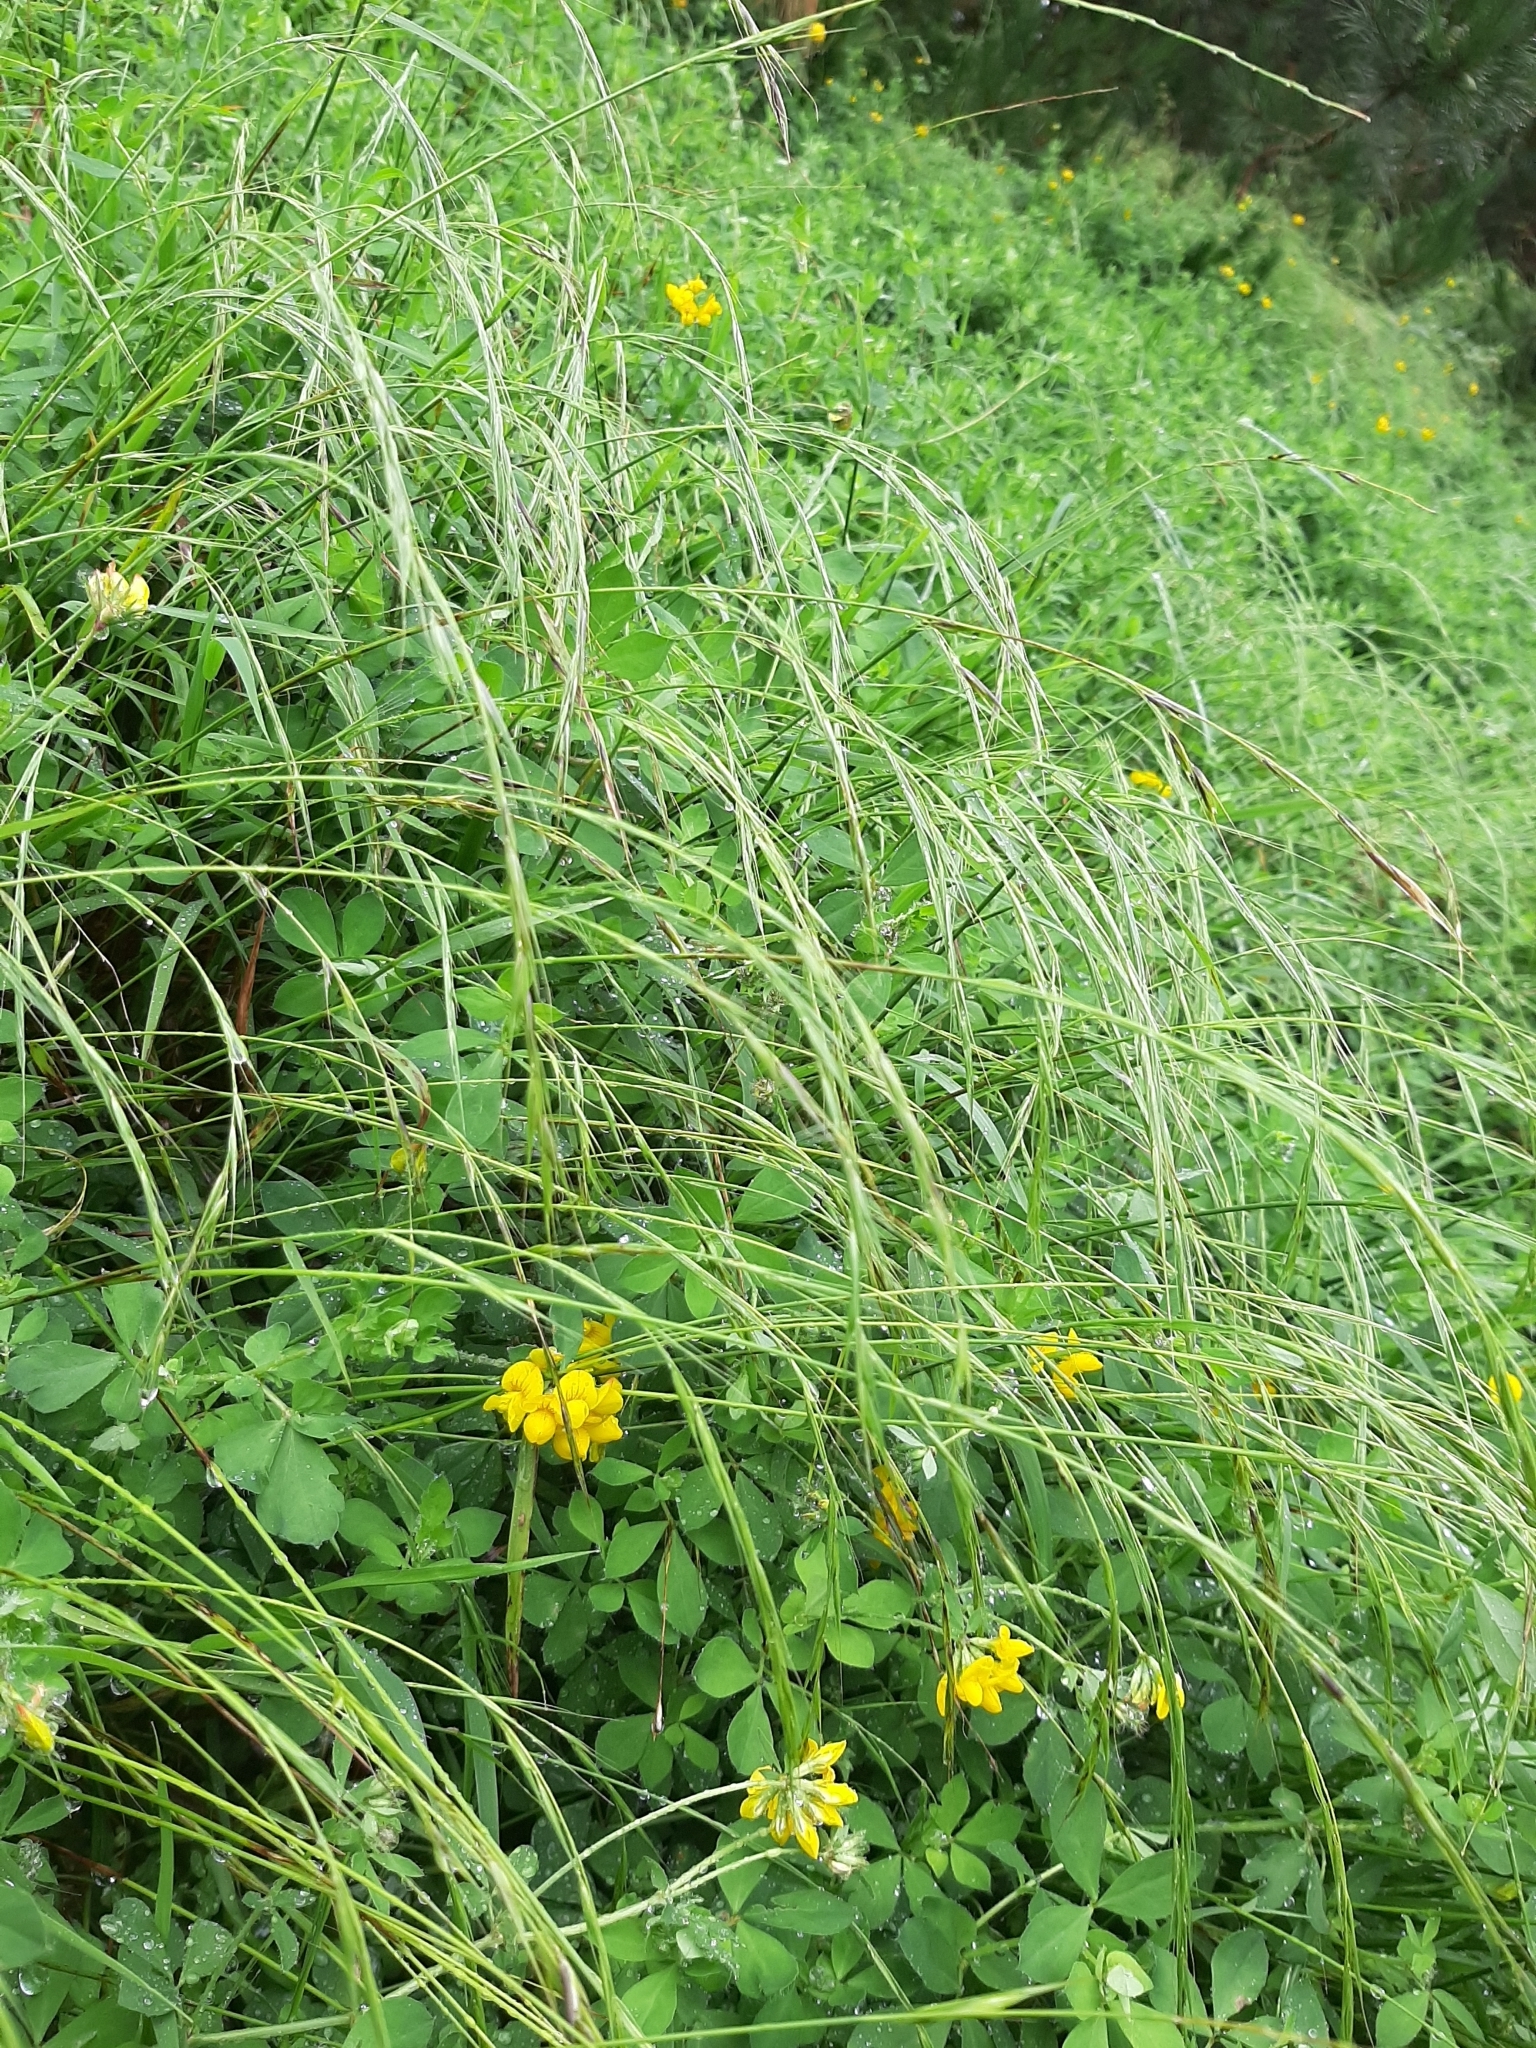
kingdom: Plantae
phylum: Tracheophyta
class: Liliopsida
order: Poales
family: Poaceae
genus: Microlaena
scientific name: Microlaena stipoides
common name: Meadow ricegrass
